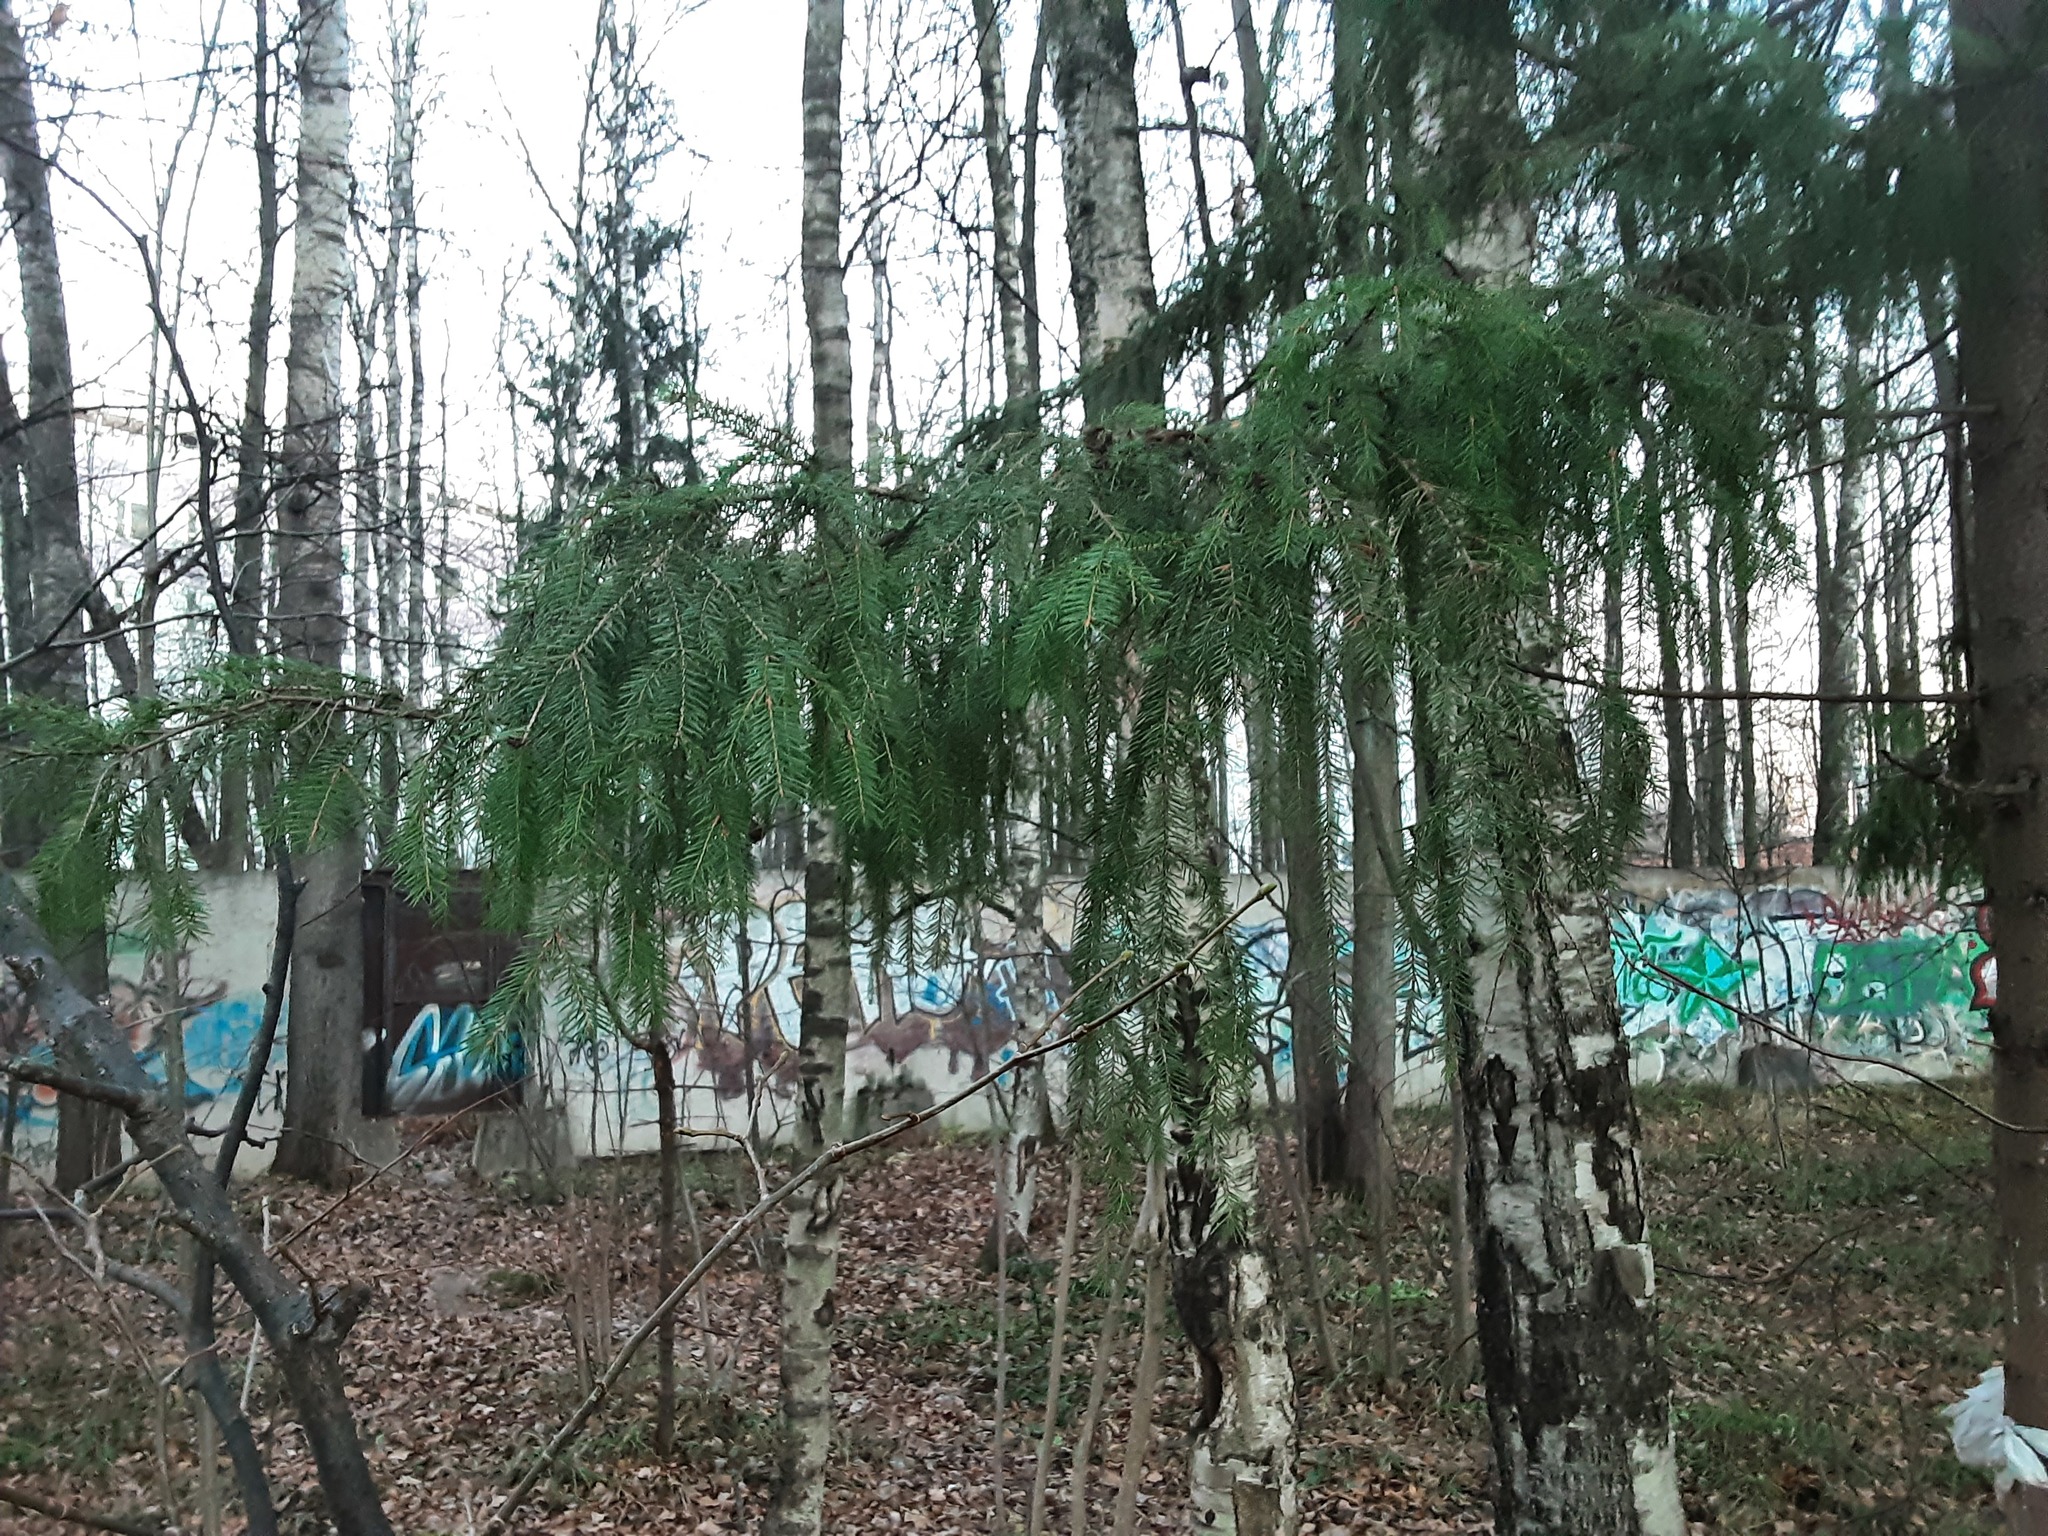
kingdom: Plantae
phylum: Tracheophyta
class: Pinopsida
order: Pinales
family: Pinaceae
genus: Picea
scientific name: Picea abies
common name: Norway spruce
